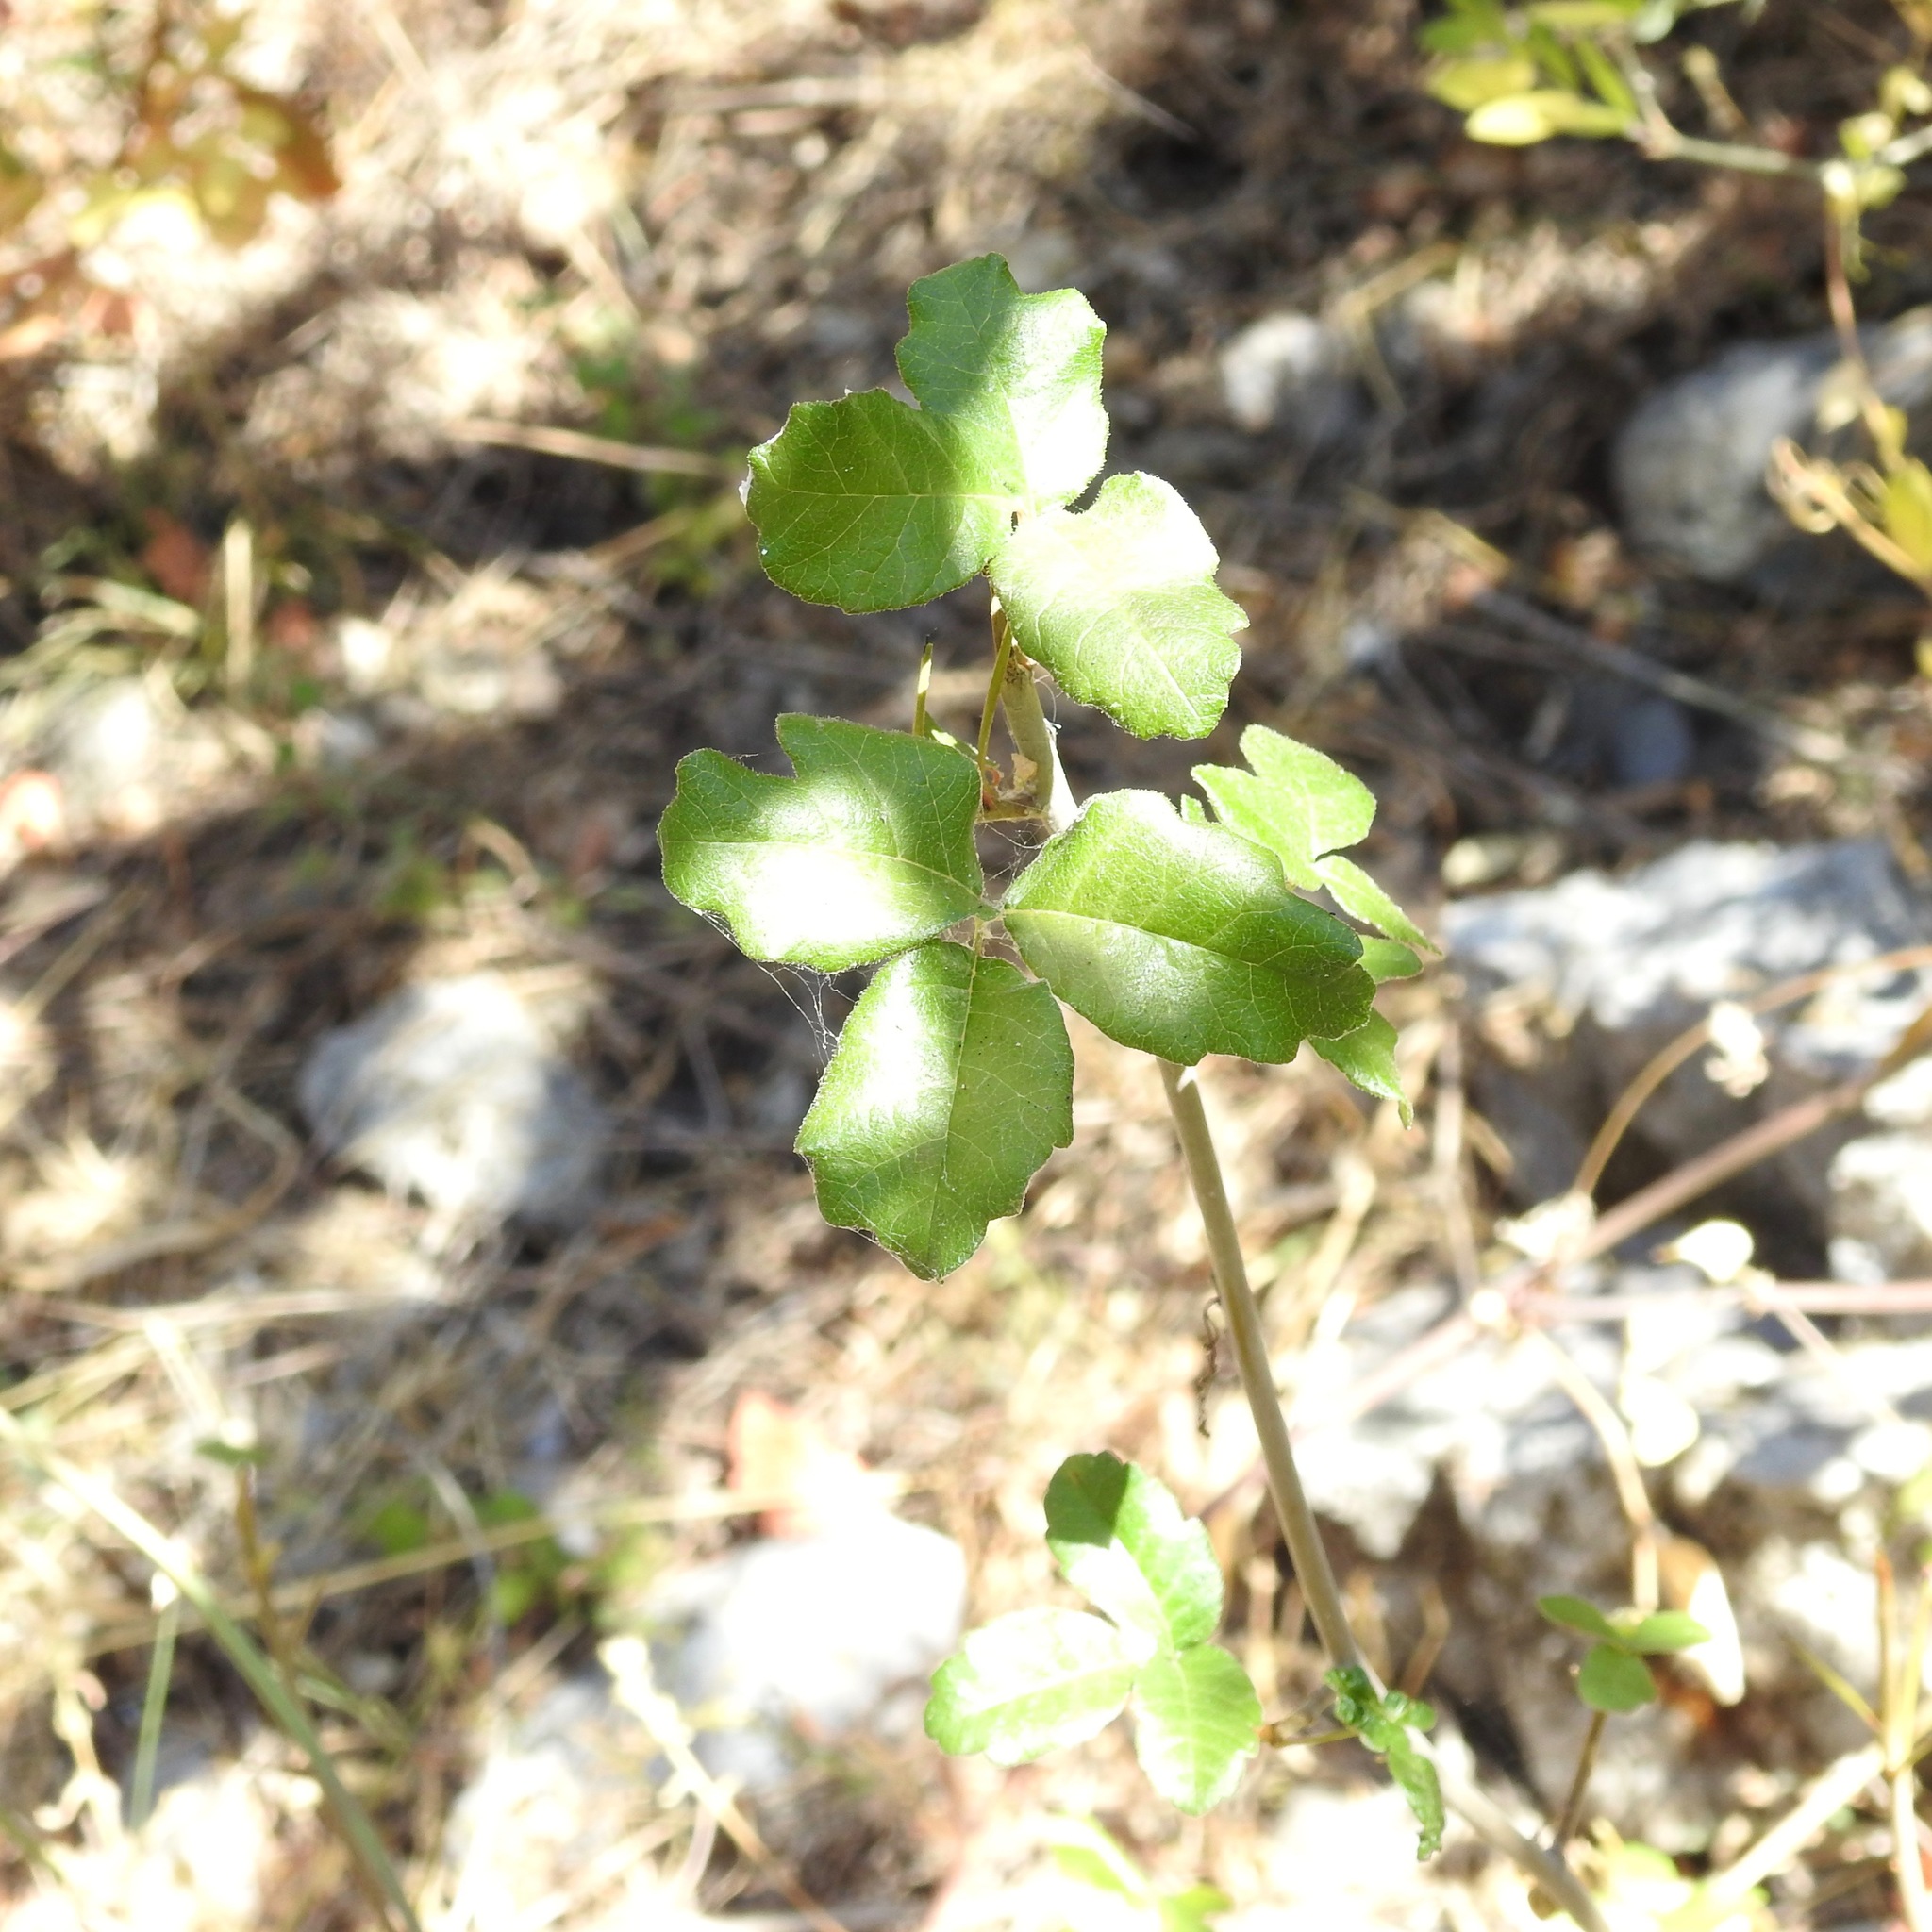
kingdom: Plantae
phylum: Tracheophyta
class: Magnoliopsida
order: Sapindales
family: Anacardiaceae
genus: Toxicodendron
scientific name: Toxicodendron diversilobum
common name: Pacific poison-oak
